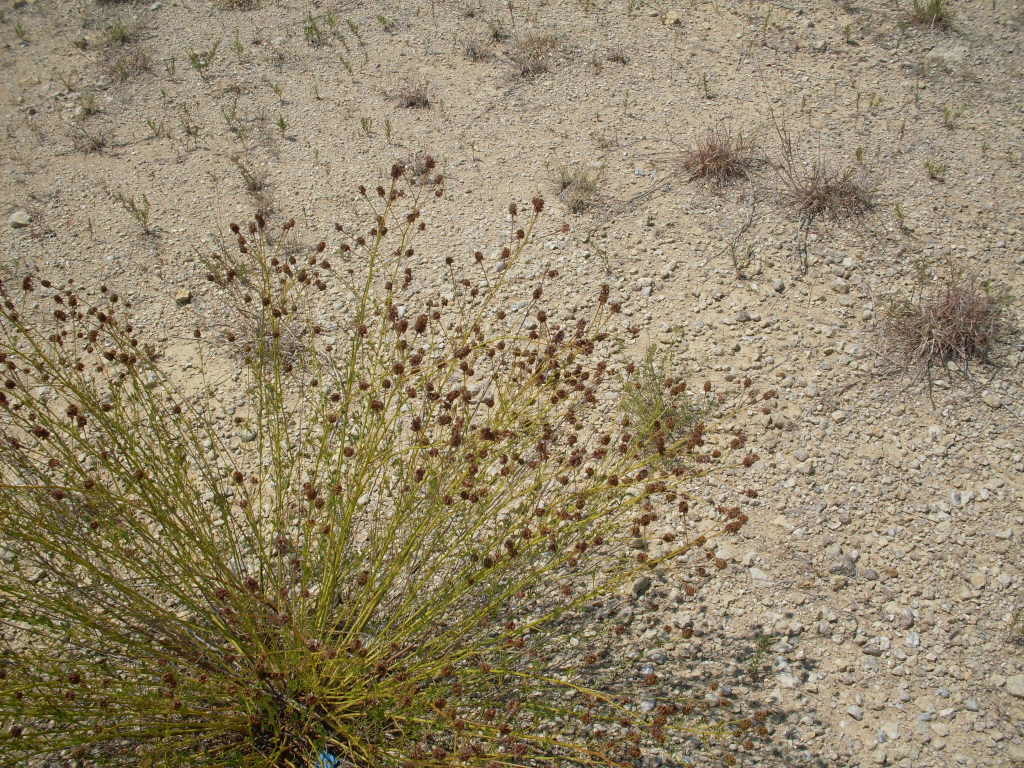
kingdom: Plantae
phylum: Tracheophyta
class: Magnoliopsida
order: Fabales
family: Fabaceae
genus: Dalea
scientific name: Dalea multiflora
